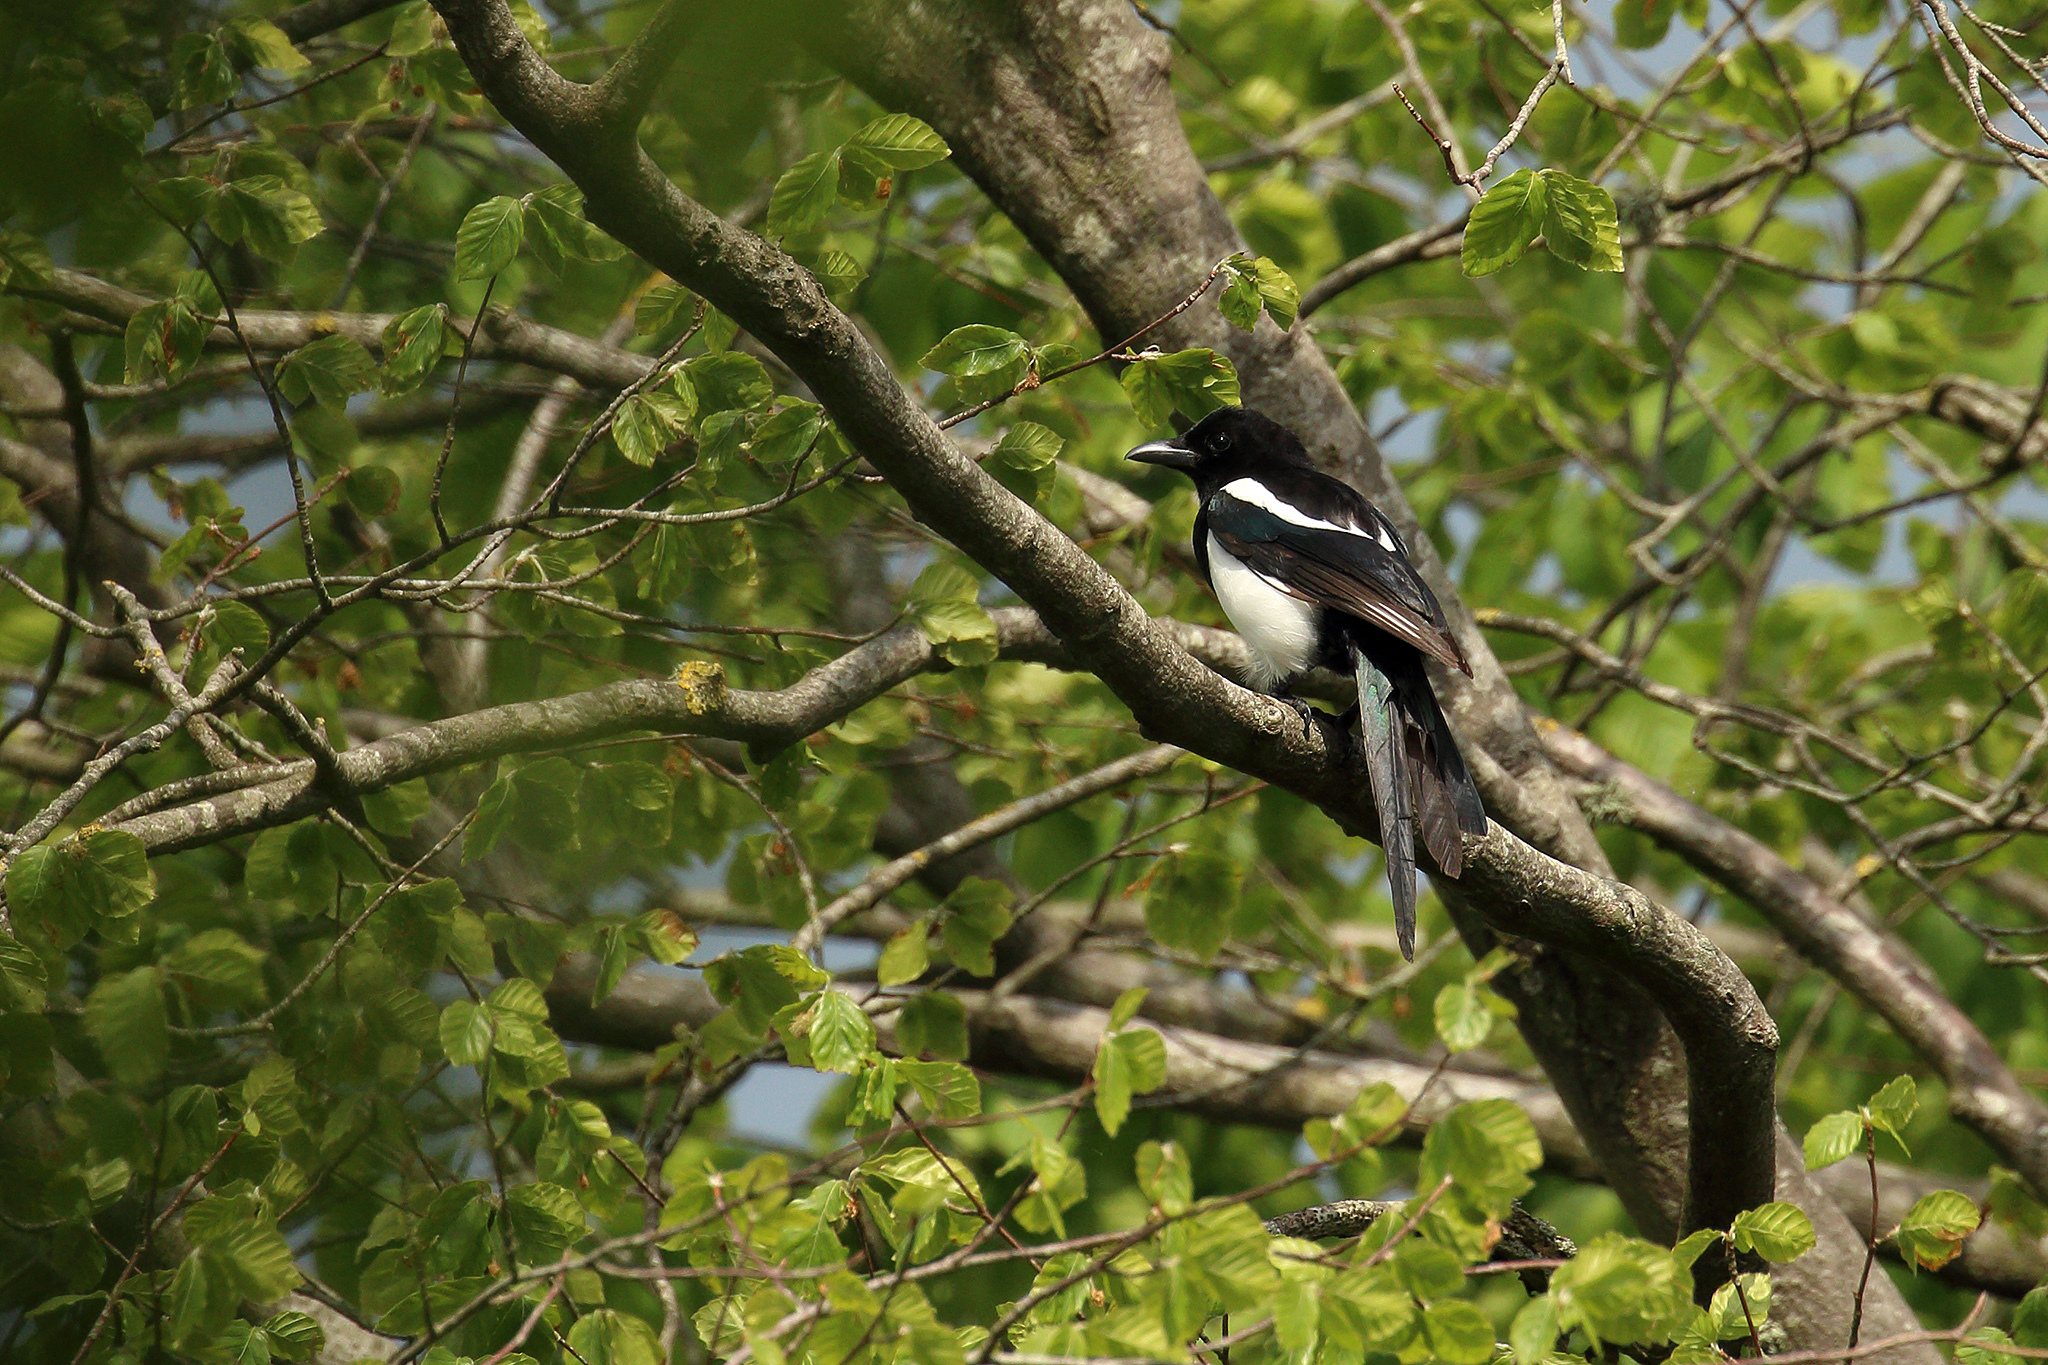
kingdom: Animalia
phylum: Chordata
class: Aves
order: Passeriformes
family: Corvidae
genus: Pica
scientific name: Pica pica
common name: Eurasian magpie
